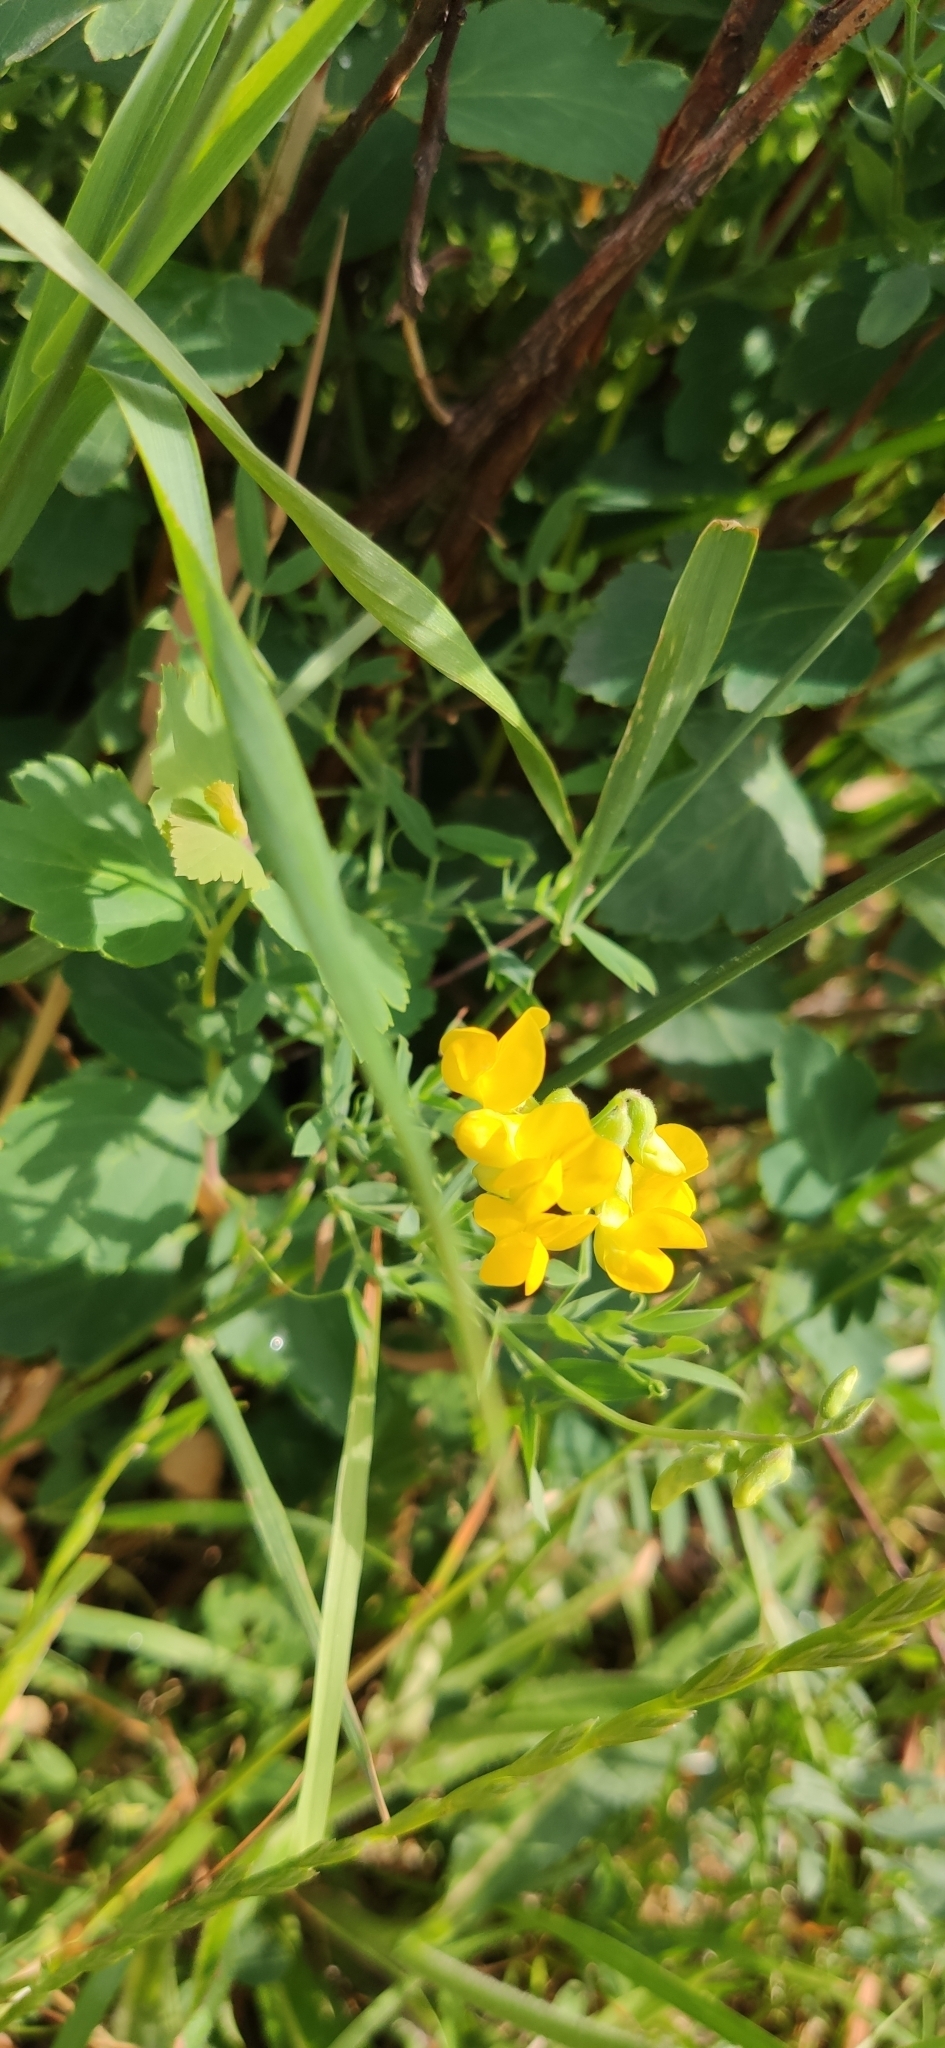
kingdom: Plantae
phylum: Tracheophyta
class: Magnoliopsida
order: Fabales
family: Fabaceae
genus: Lathyrus
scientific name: Lathyrus pratensis
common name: Meadow vetchling
